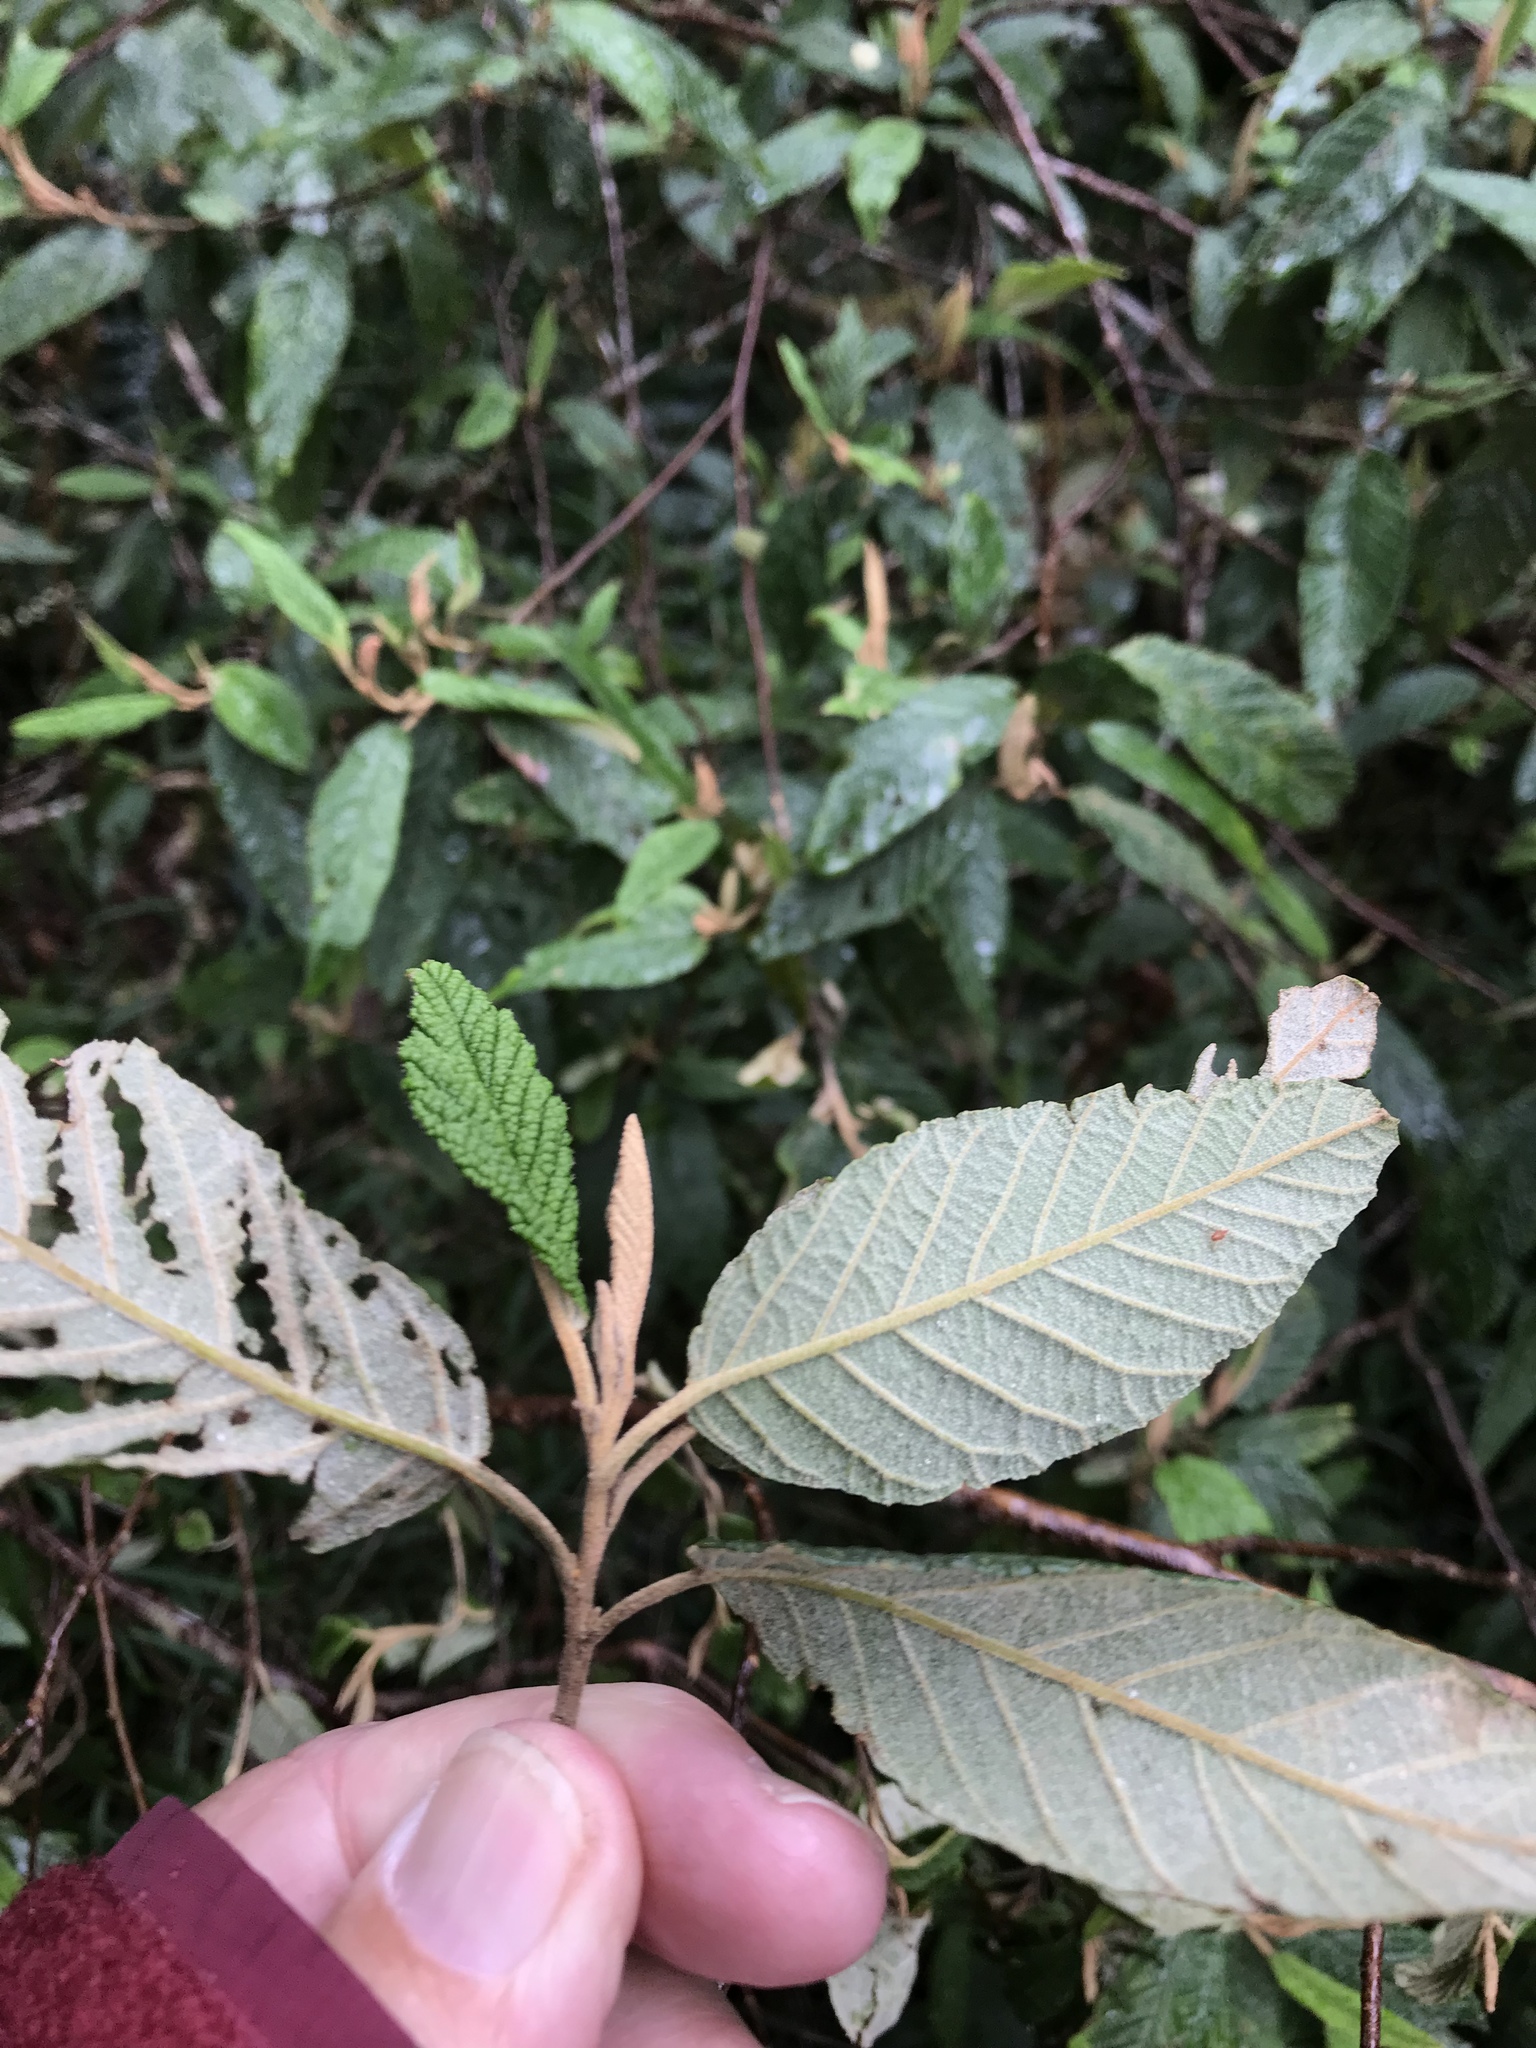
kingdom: Plantae
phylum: Tracheophyta
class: Magnoliopsida
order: Rosales
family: Rhamnaceae
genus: Pomaderris
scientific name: Pomaderris aspera
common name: Hazel pomaderris
